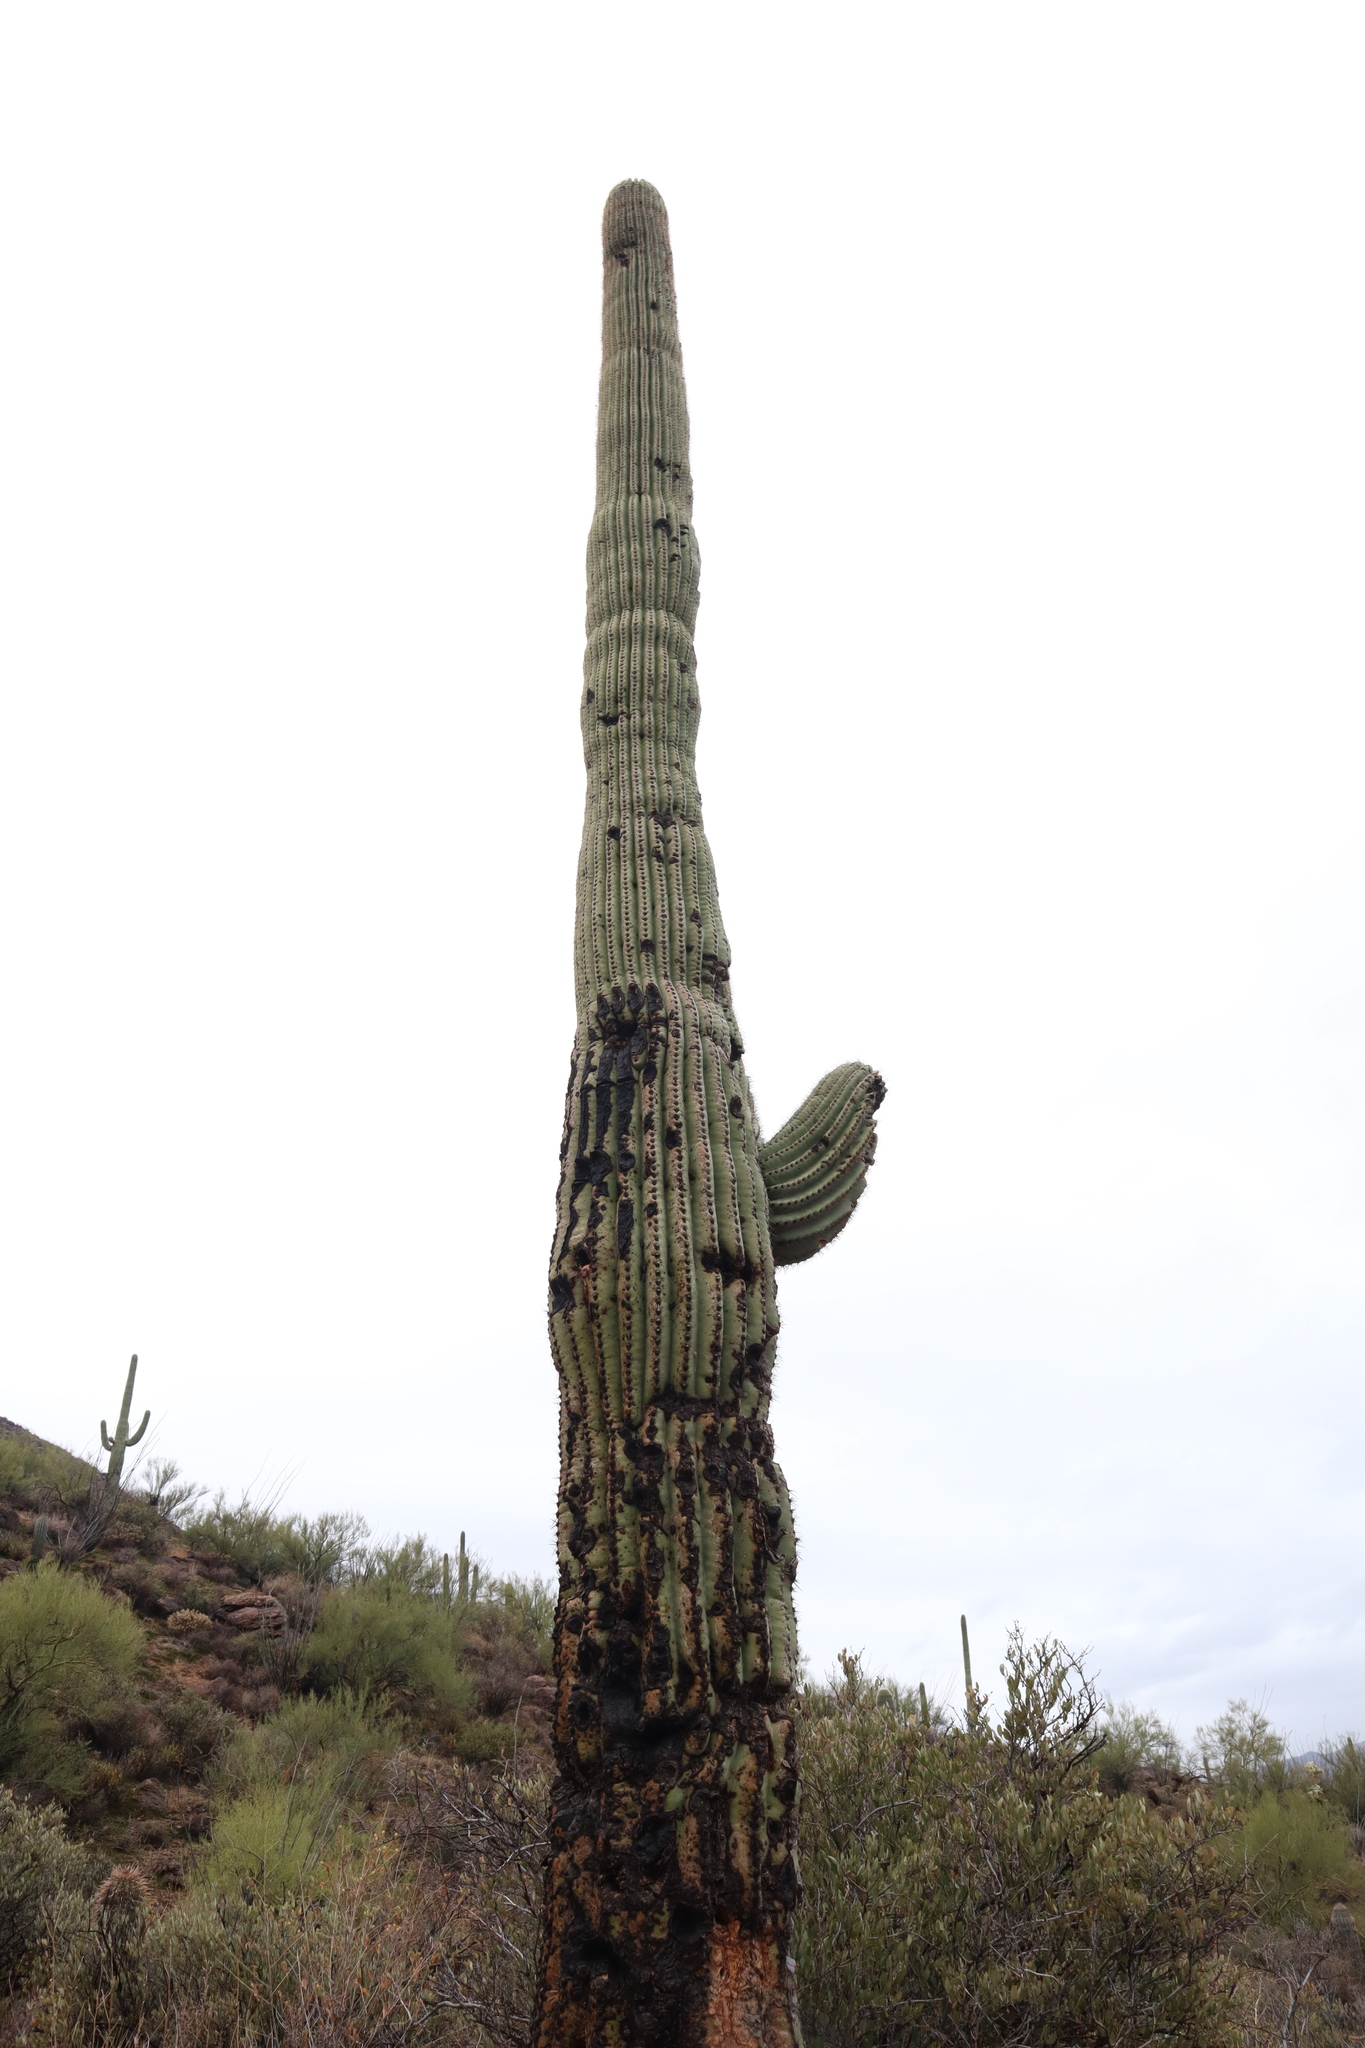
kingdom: Plantae
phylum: Tracheophyta
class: Magnoliopsida
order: Caryophyllales
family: Cactaceae
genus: Carnegiea
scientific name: Carnegiea gigantea
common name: Saguaro
